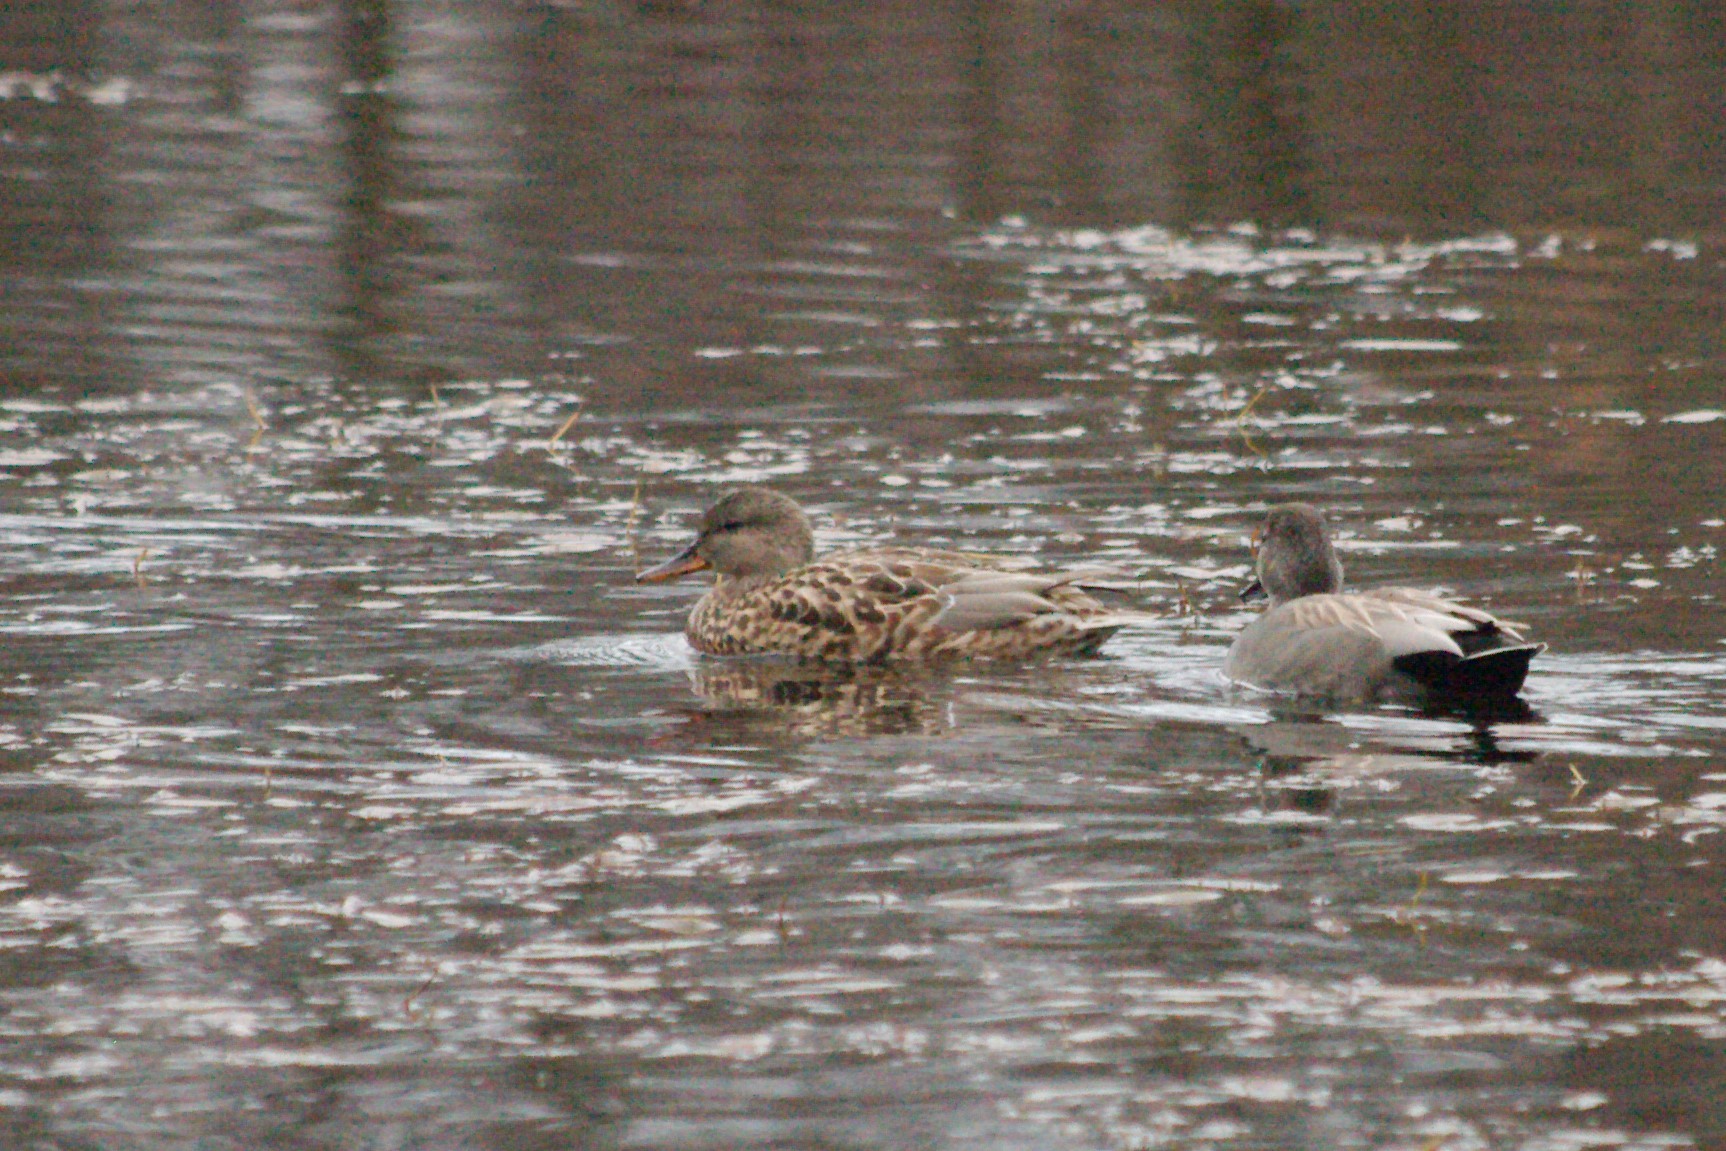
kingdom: Animalia
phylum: Chordata
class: Aves
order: Anseriformes
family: Anatidae
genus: Mareca
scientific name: Mareca strepera
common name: Gadwall
